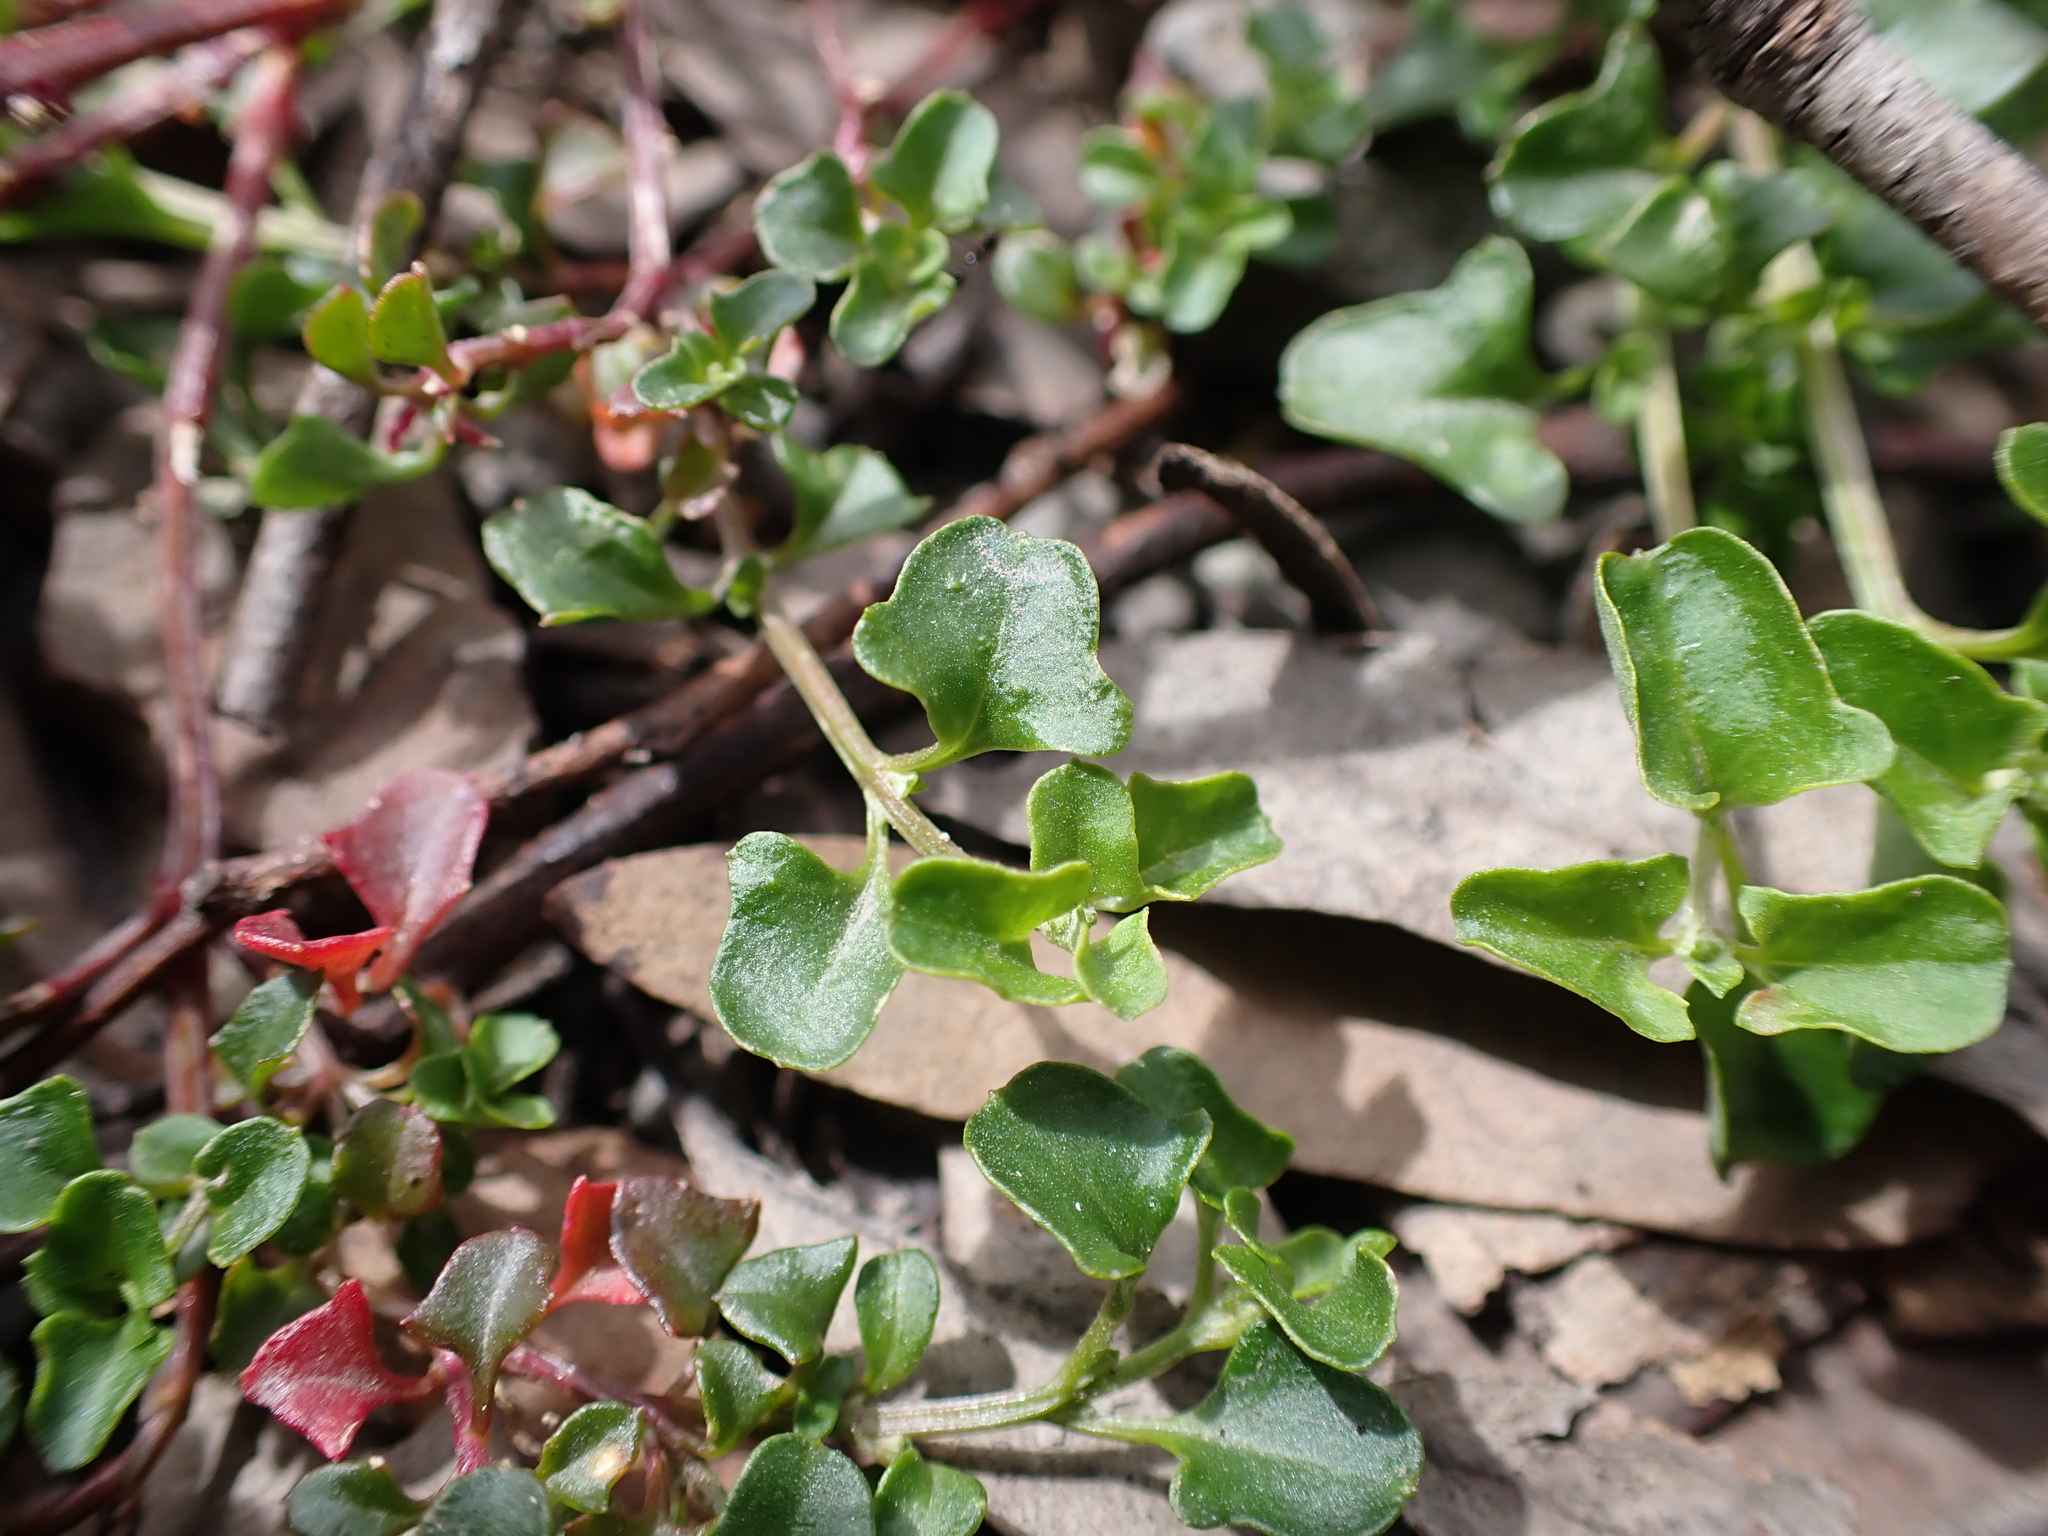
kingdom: Plantae
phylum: Tracheophyta
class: Magnoliopsida
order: Caryophyllales
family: Amaranthaceae
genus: Chenopodium
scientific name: Chenopodium robertianum
